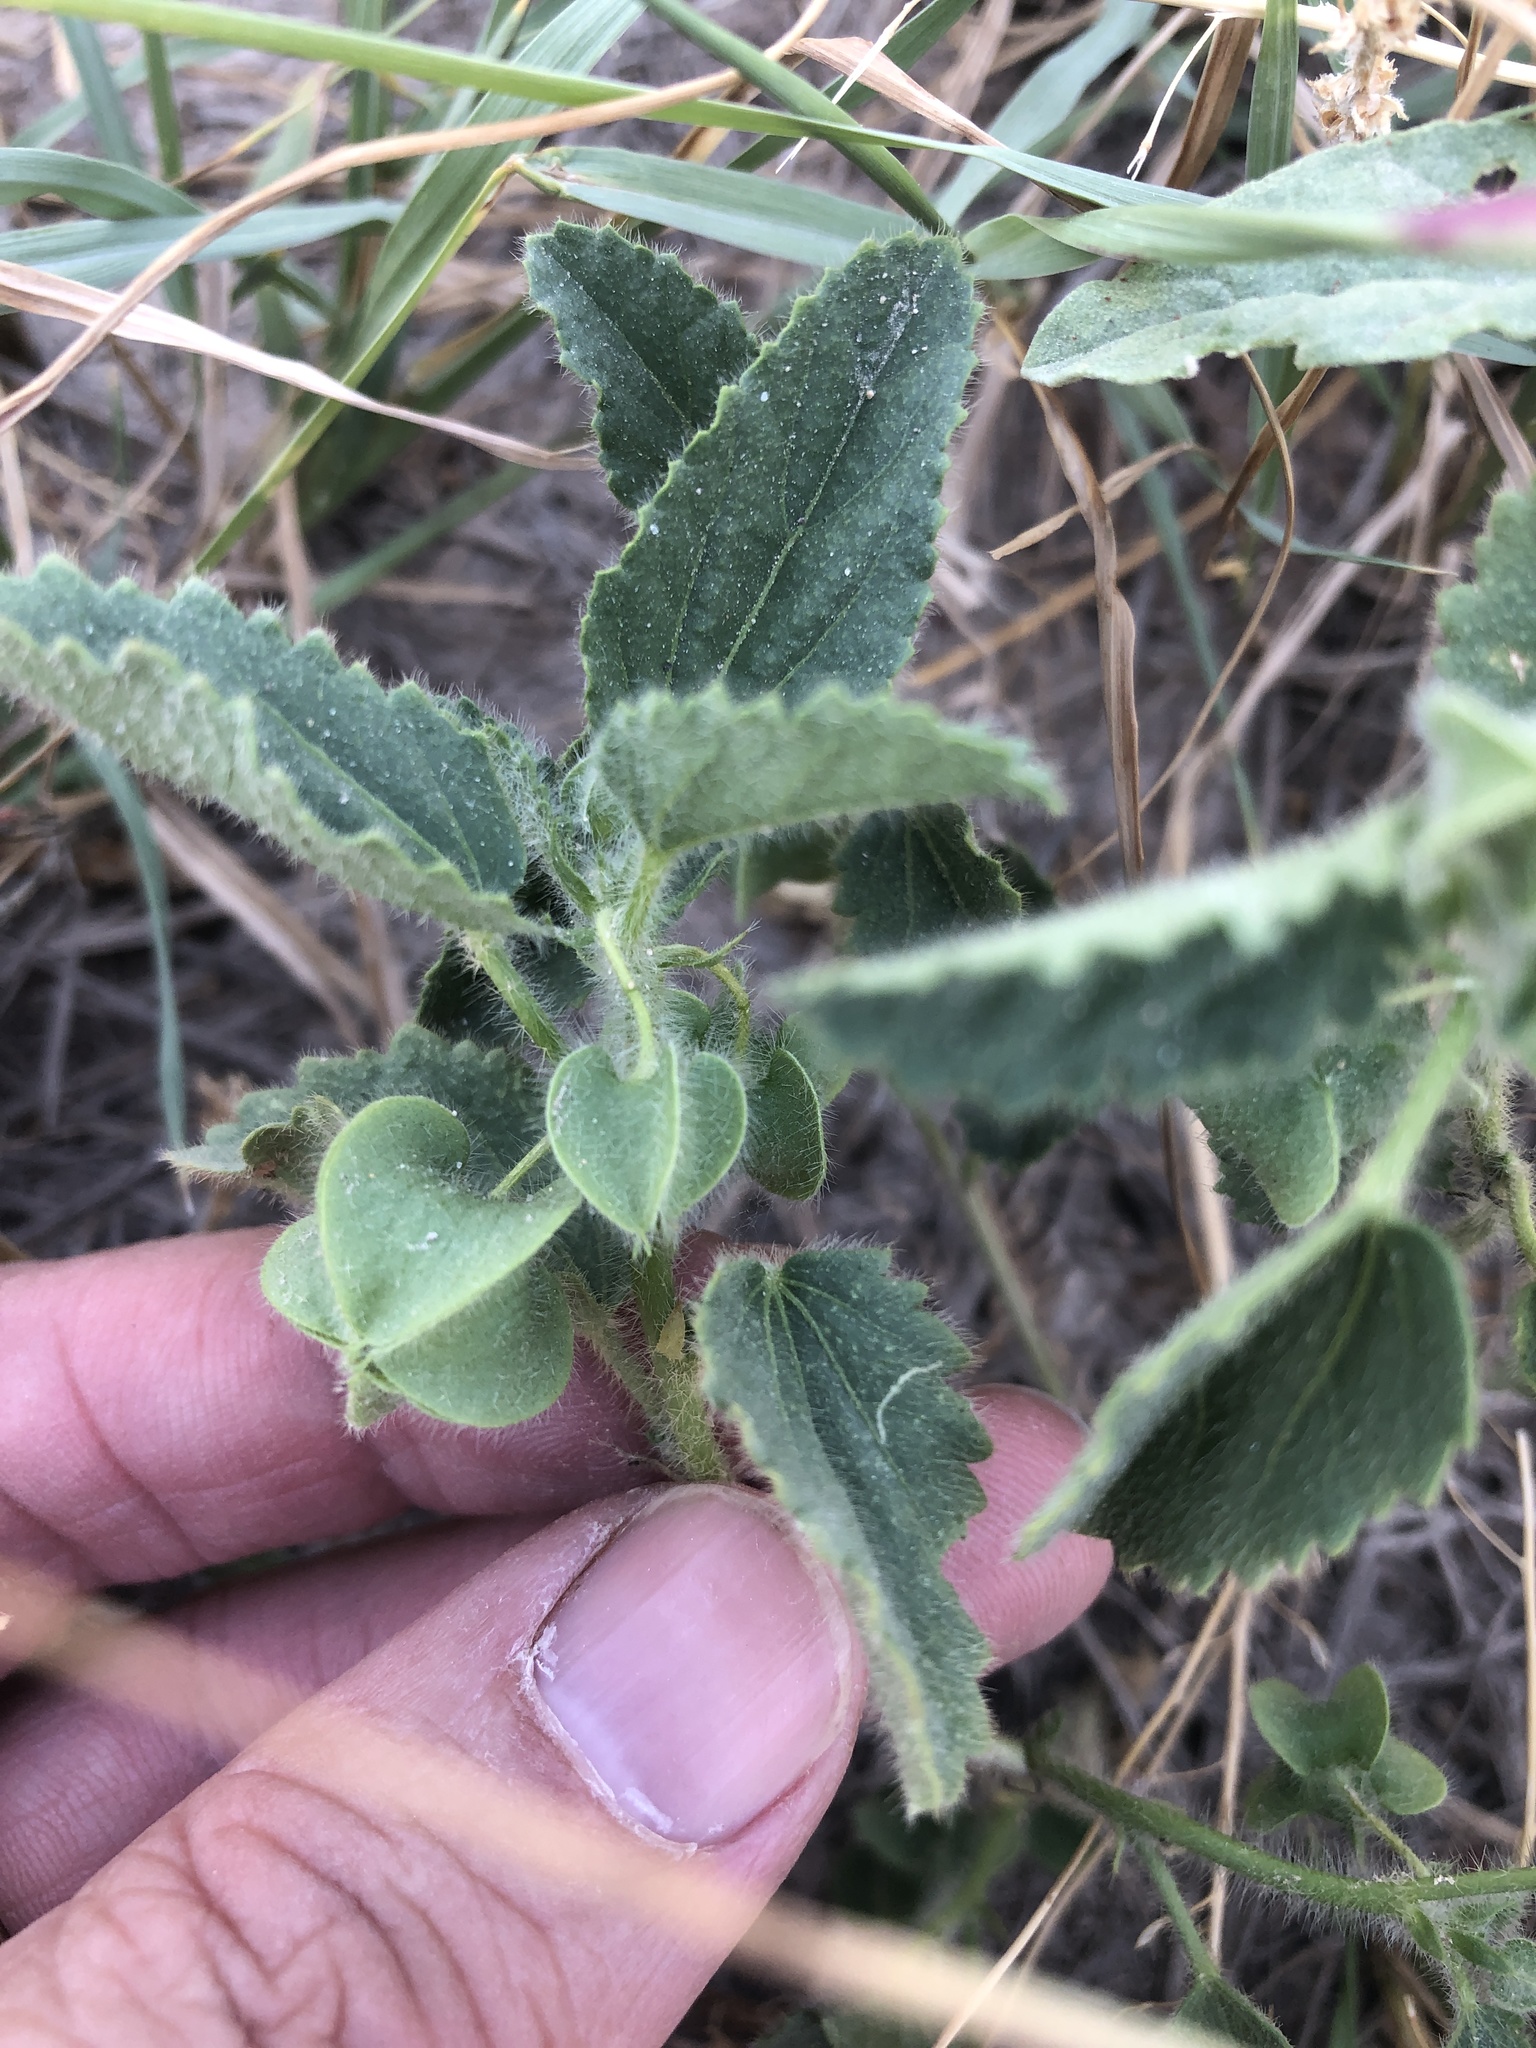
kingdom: Plantae
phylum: Tracheophyta
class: Magnoliopsida
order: Malvales
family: Malvaceae
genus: Rhynchosida
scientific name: Rhynchosida physocalyx
